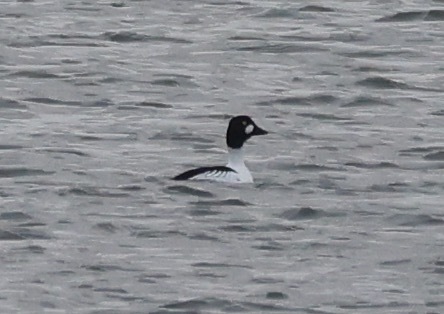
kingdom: Animalia
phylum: Chordata
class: Aves
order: Anseriformes
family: Anatidae
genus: Bucephala
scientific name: Bucephala clangula
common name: Common goldeneye
